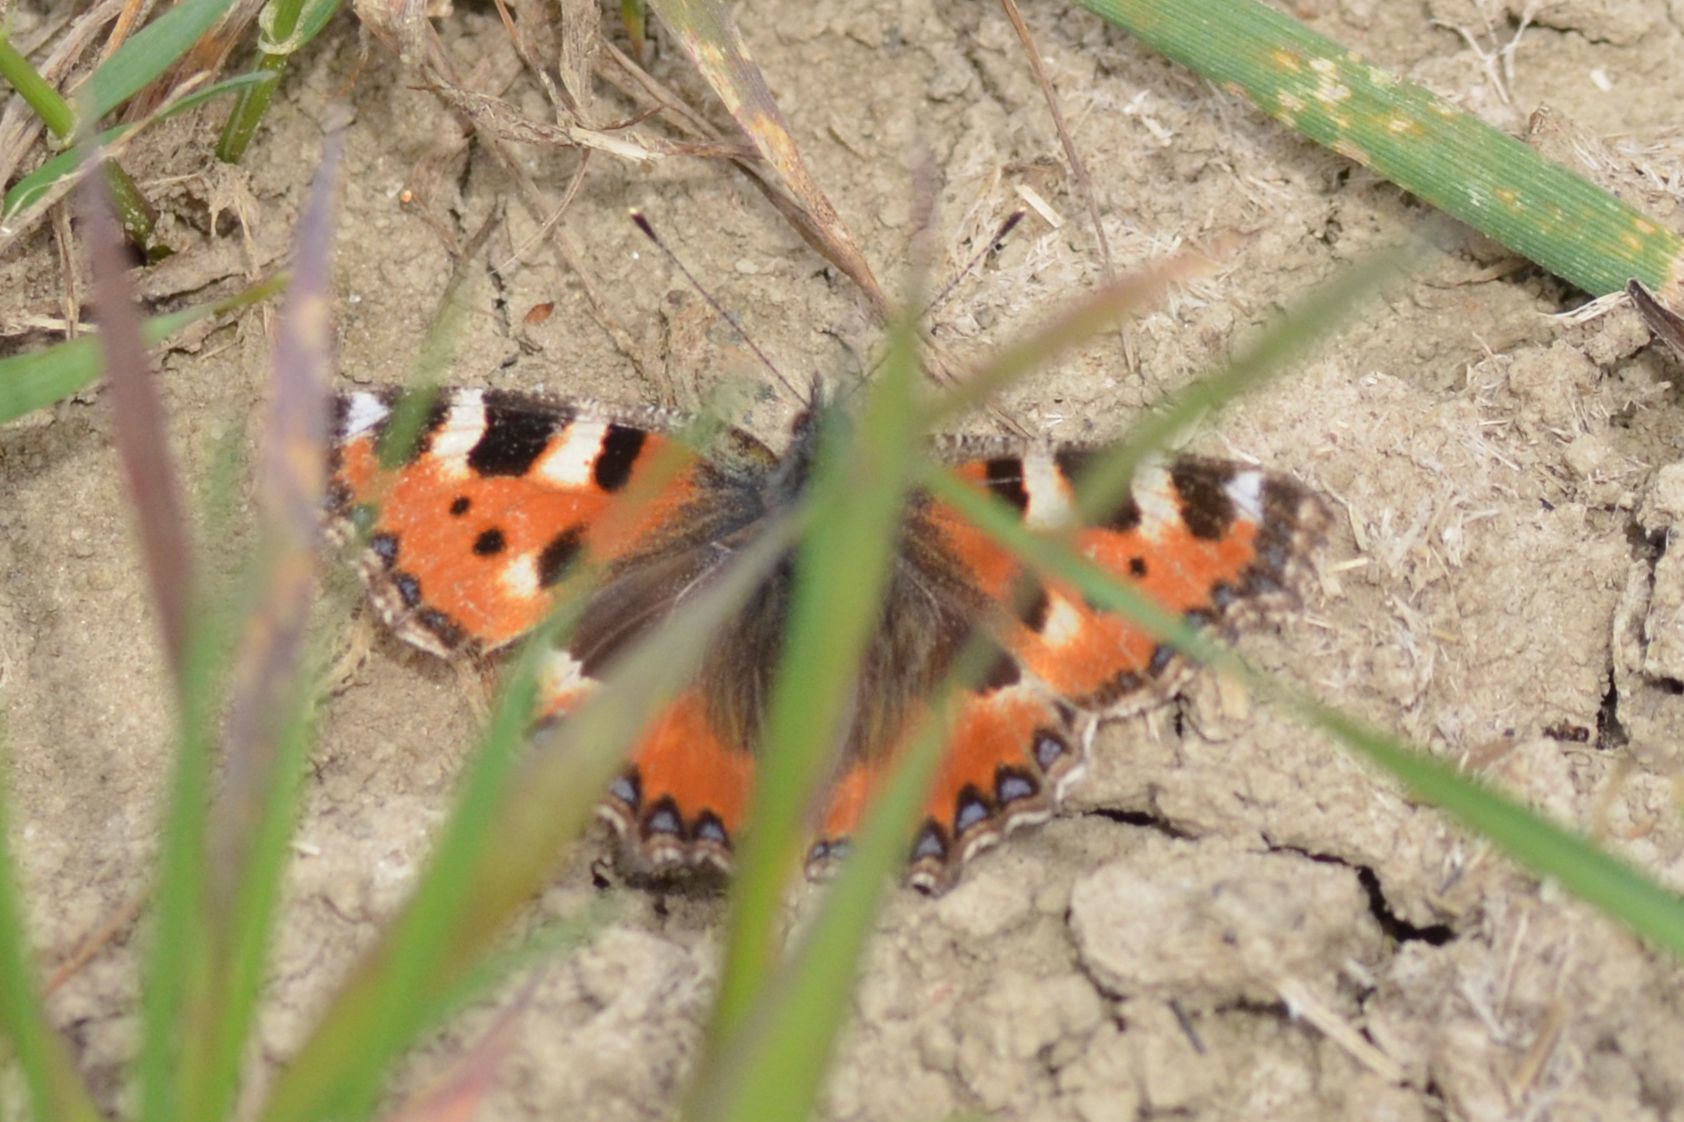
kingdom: Animalia
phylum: Arthropoda
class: Insecta
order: Lepidoptera
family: Nymphalidae
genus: Aglais
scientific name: Aglais urticae
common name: Small tortoiseshell
